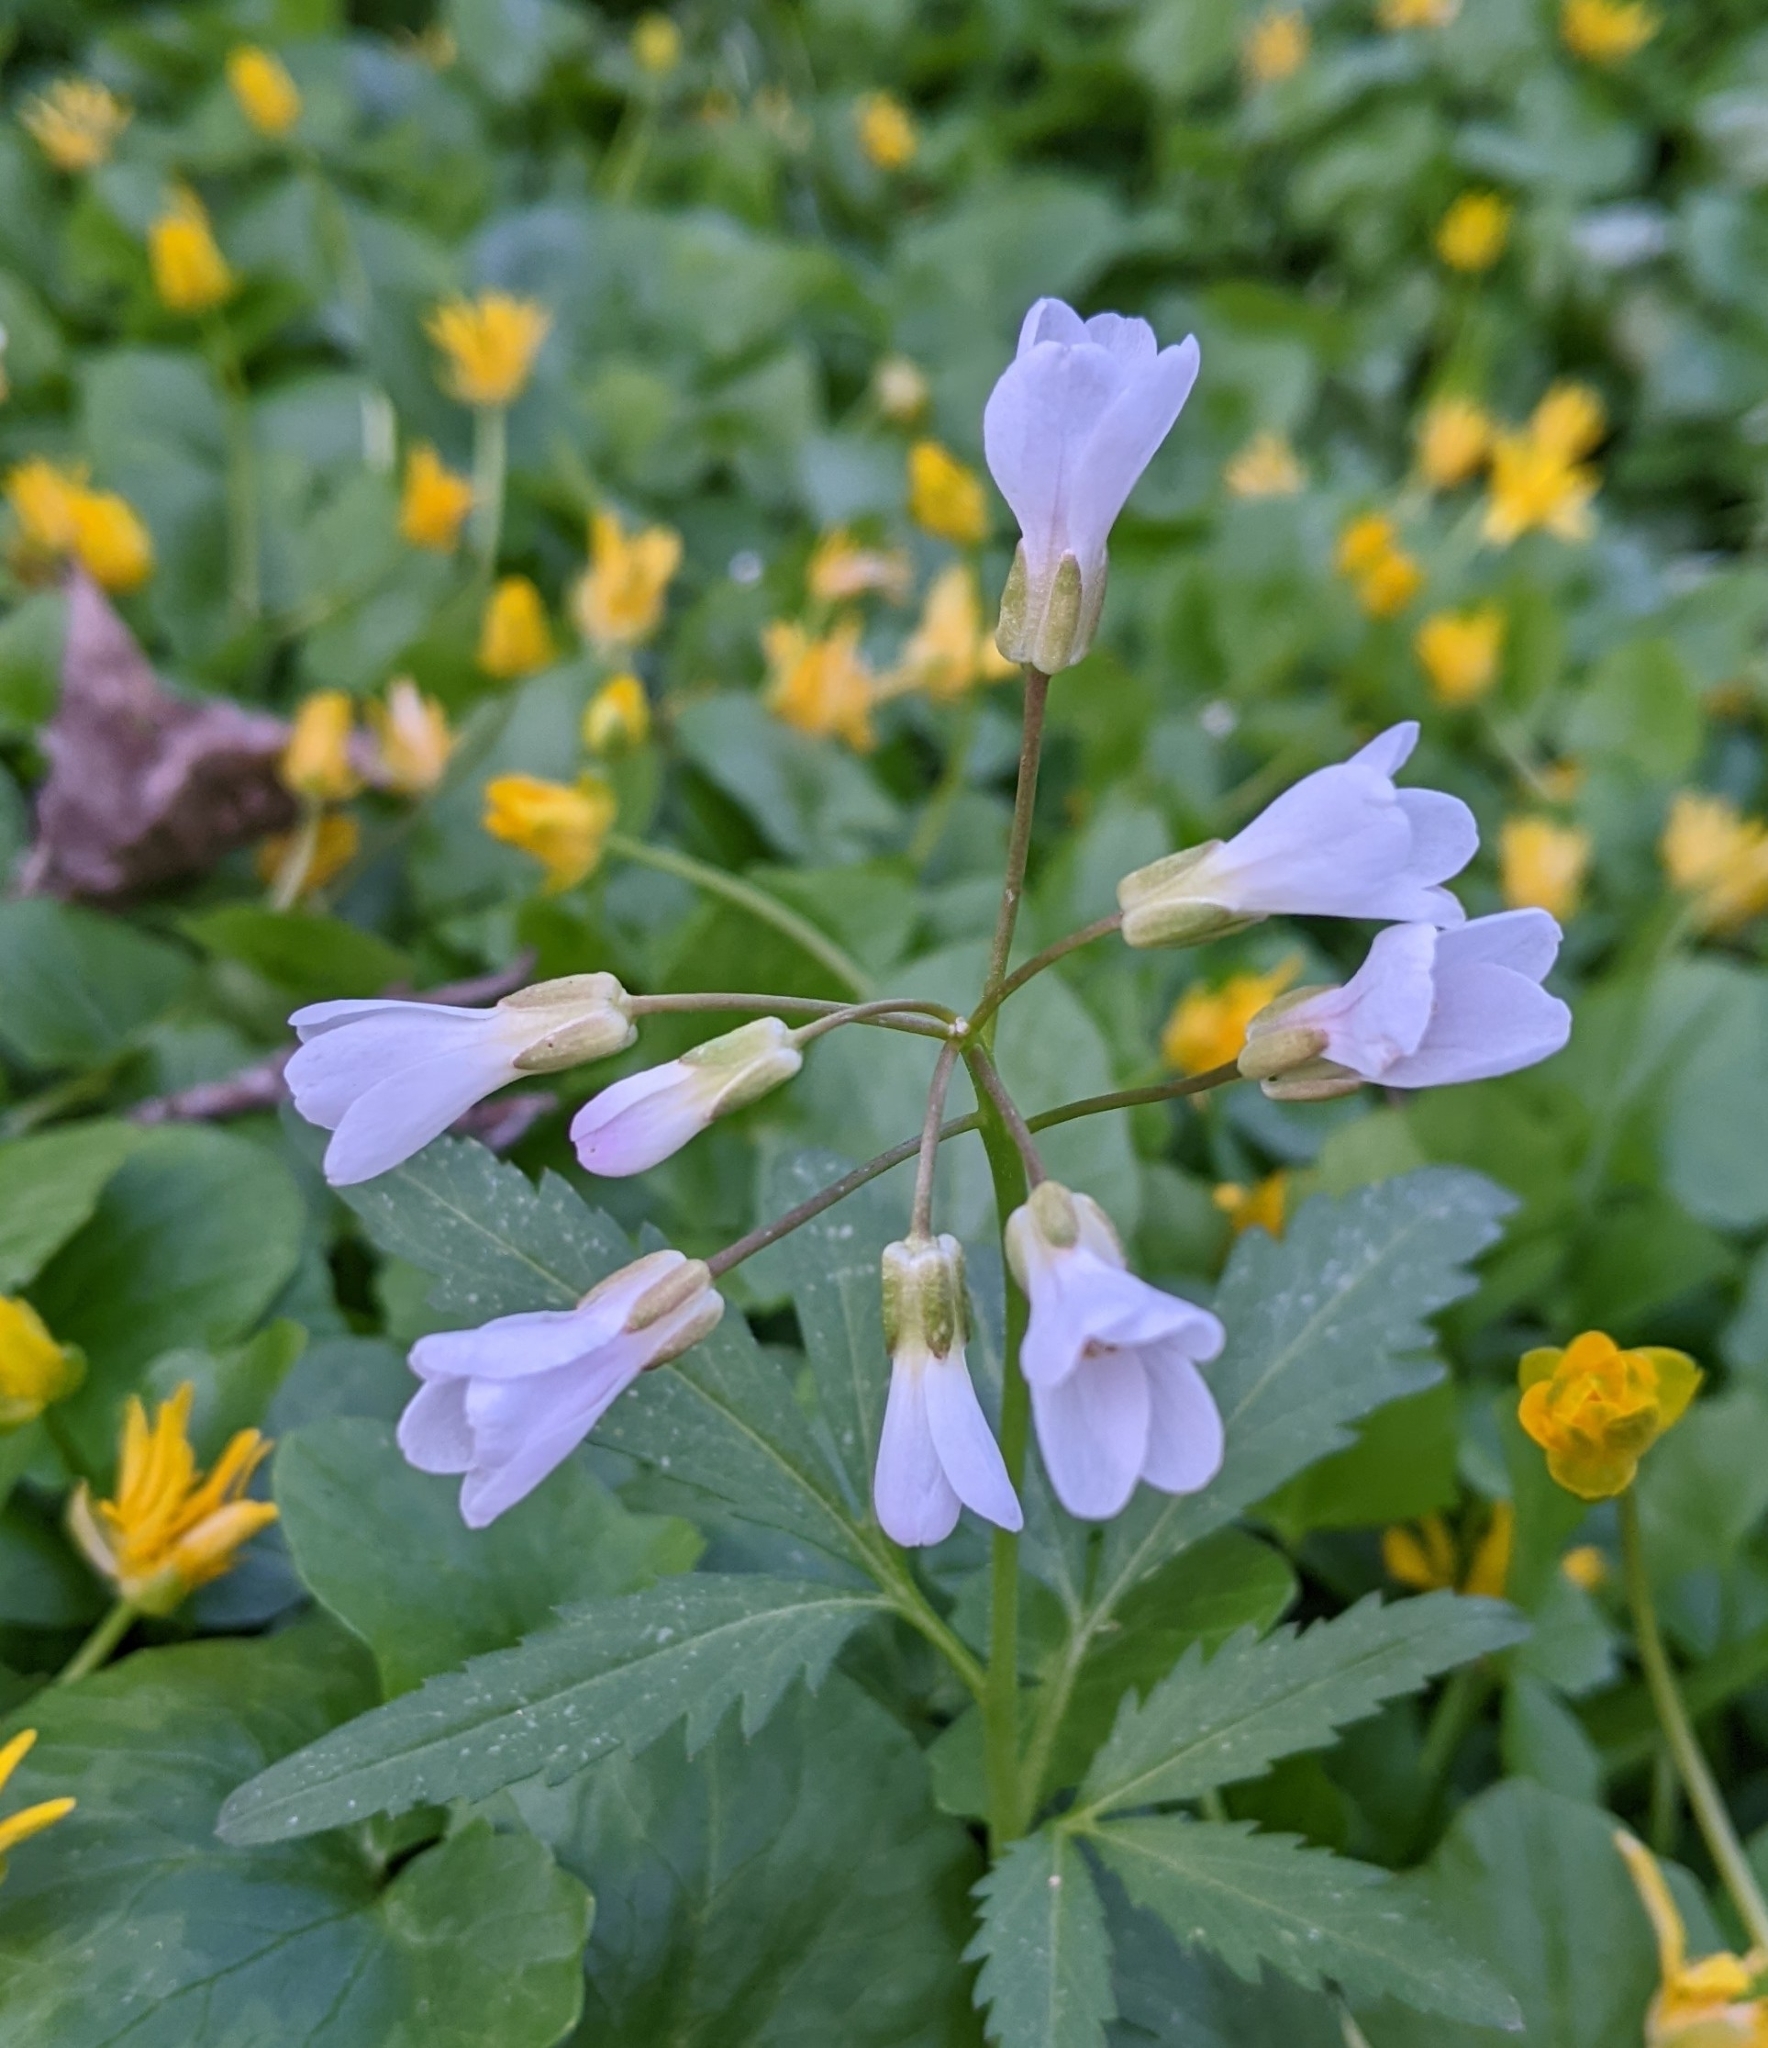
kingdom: Plantae
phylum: Tracheophyta
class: Magnoliopsida
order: Brassicales
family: Brassicaceae
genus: Cardamine
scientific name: Cardamine concatenata
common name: Cut-leaf toothcup
